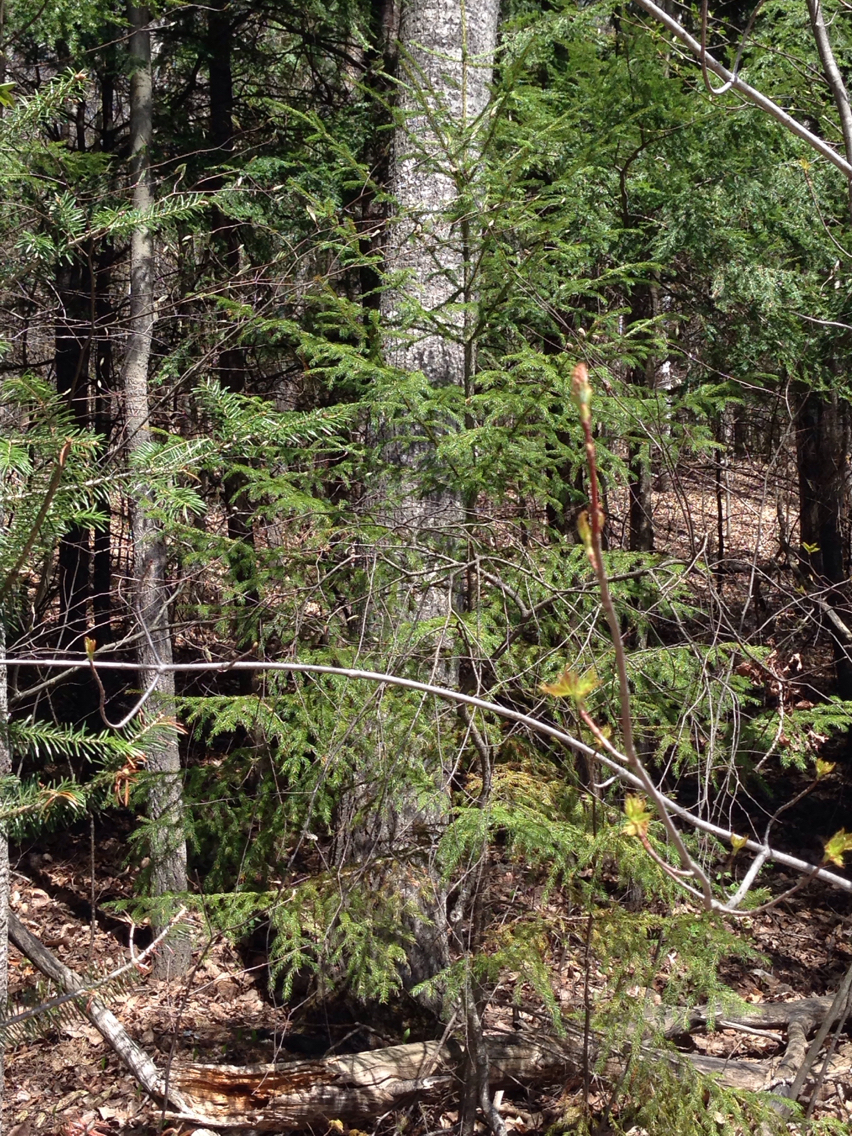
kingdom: Plantae
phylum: Tracheophyta
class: Pinopsida
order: Pinales
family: Pinaceae
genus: Picea
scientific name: Picea rubens
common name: Red spruce
